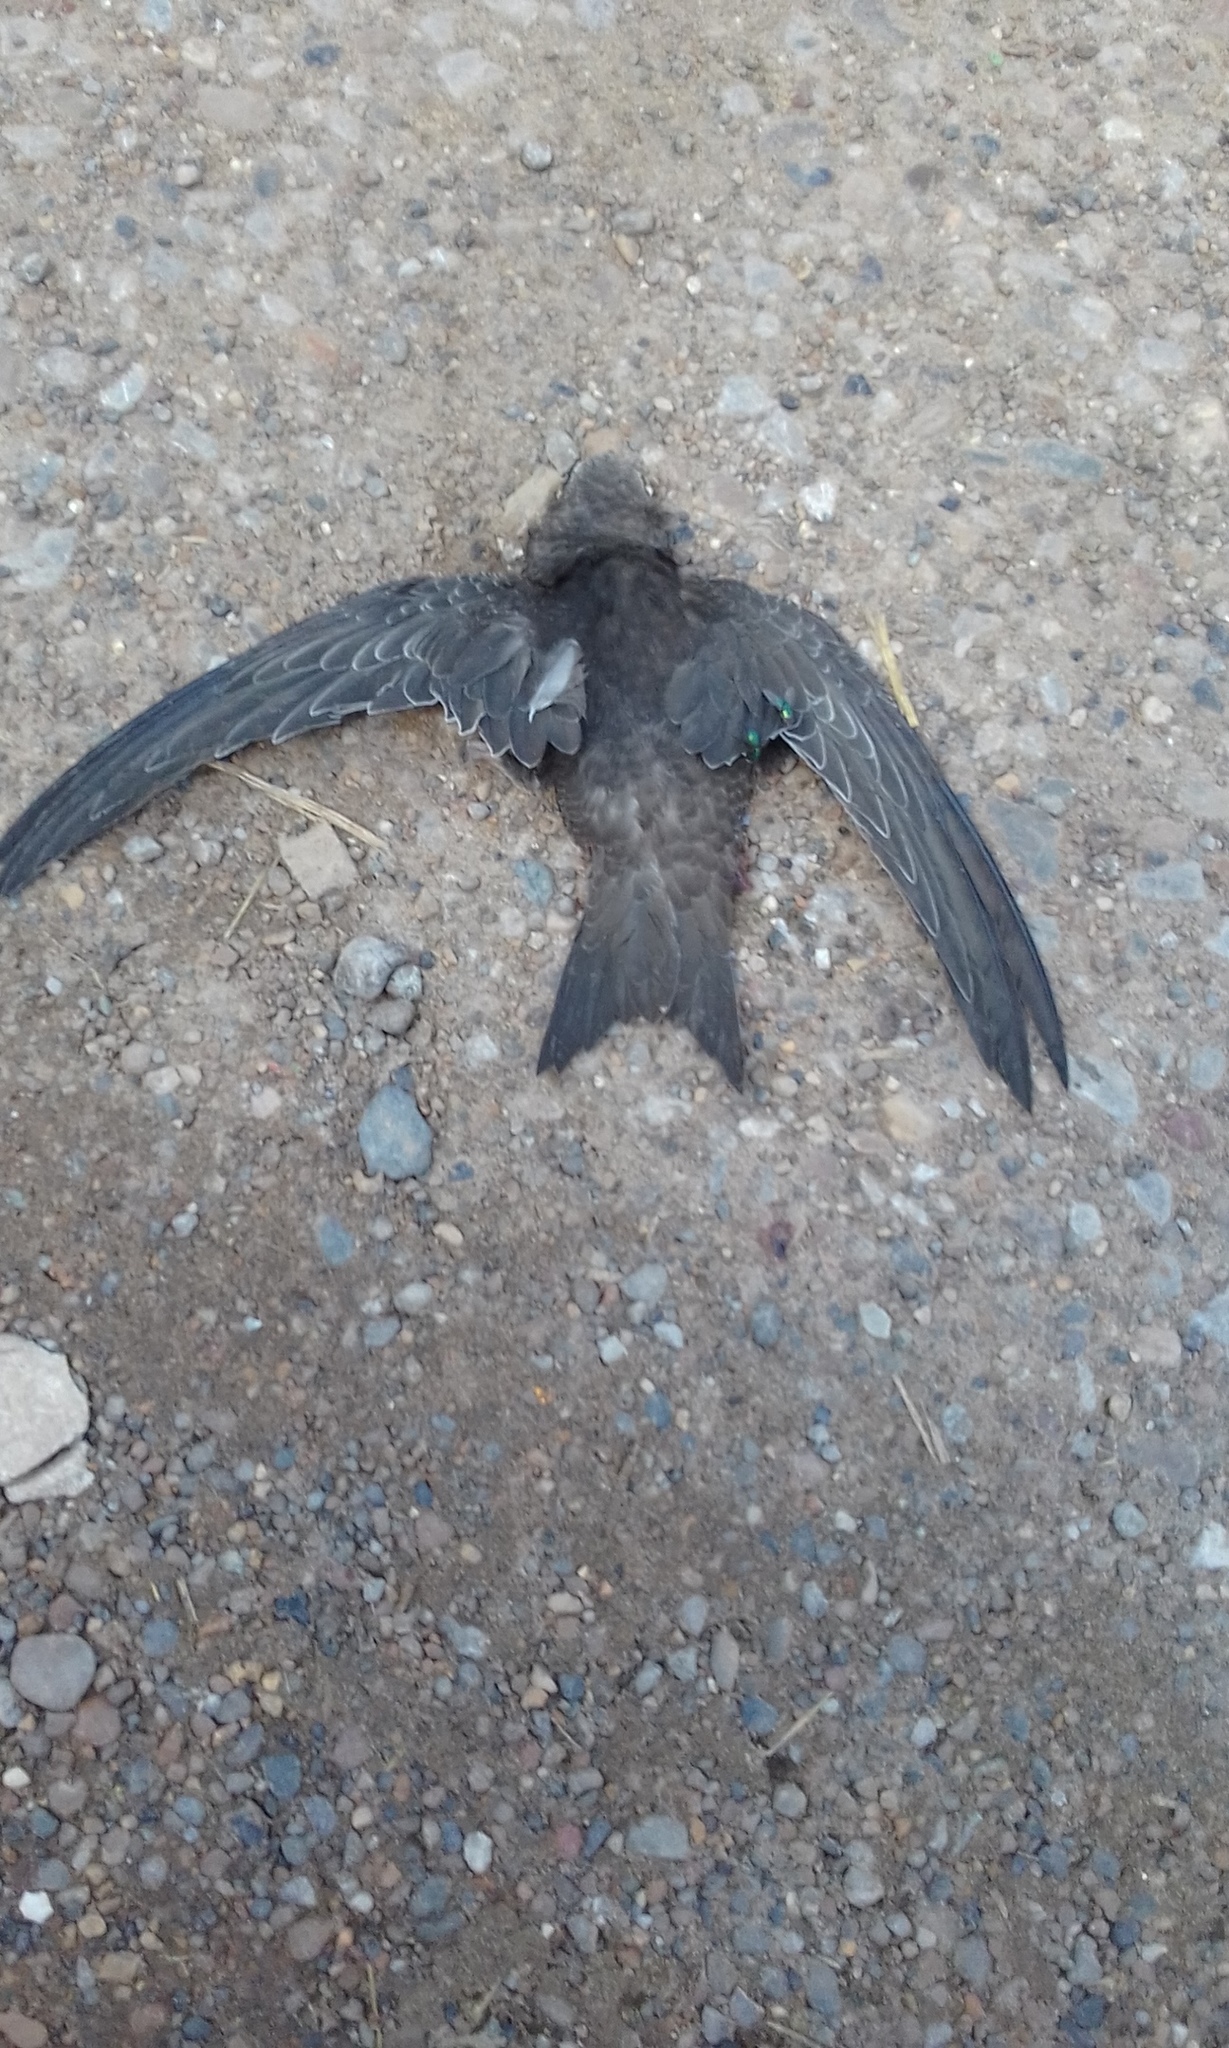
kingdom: Animalia
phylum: Chordata
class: Aves
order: Apodiformes
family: Apodidae
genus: Apus
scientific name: Apus apus
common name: Common swift
